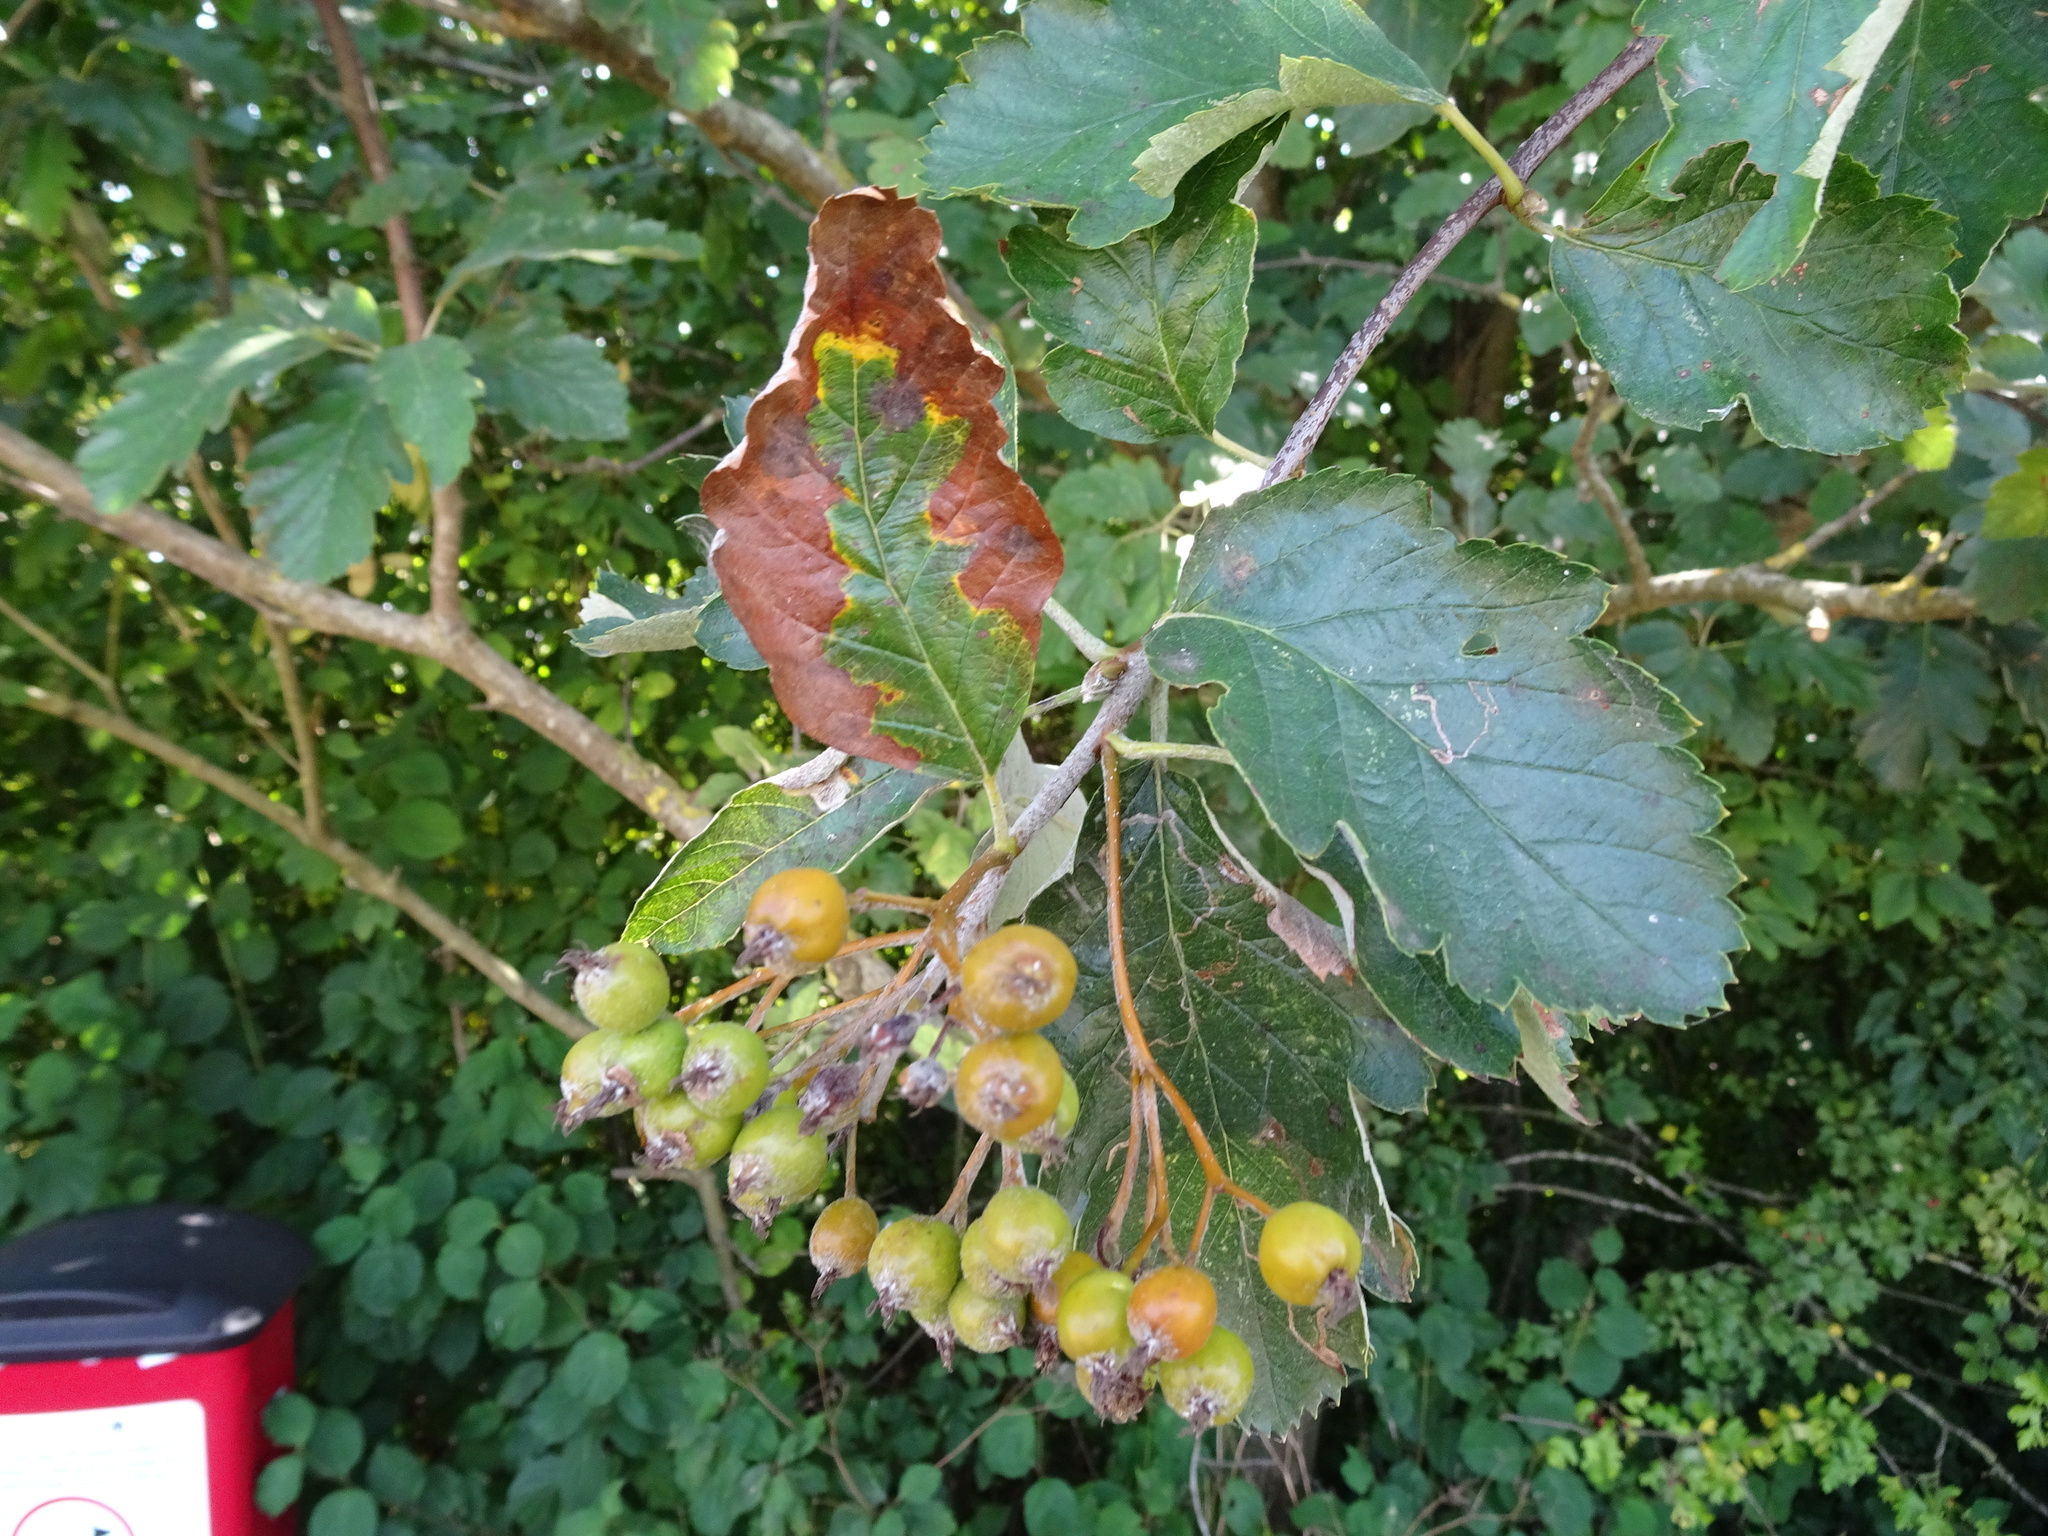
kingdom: Plantae
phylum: Tracheophyta
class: Magnoliopsida
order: Rosales
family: Rosaceae
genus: Scandosorbus
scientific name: Scandosorbus intermedia
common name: Swedish whitebeam
